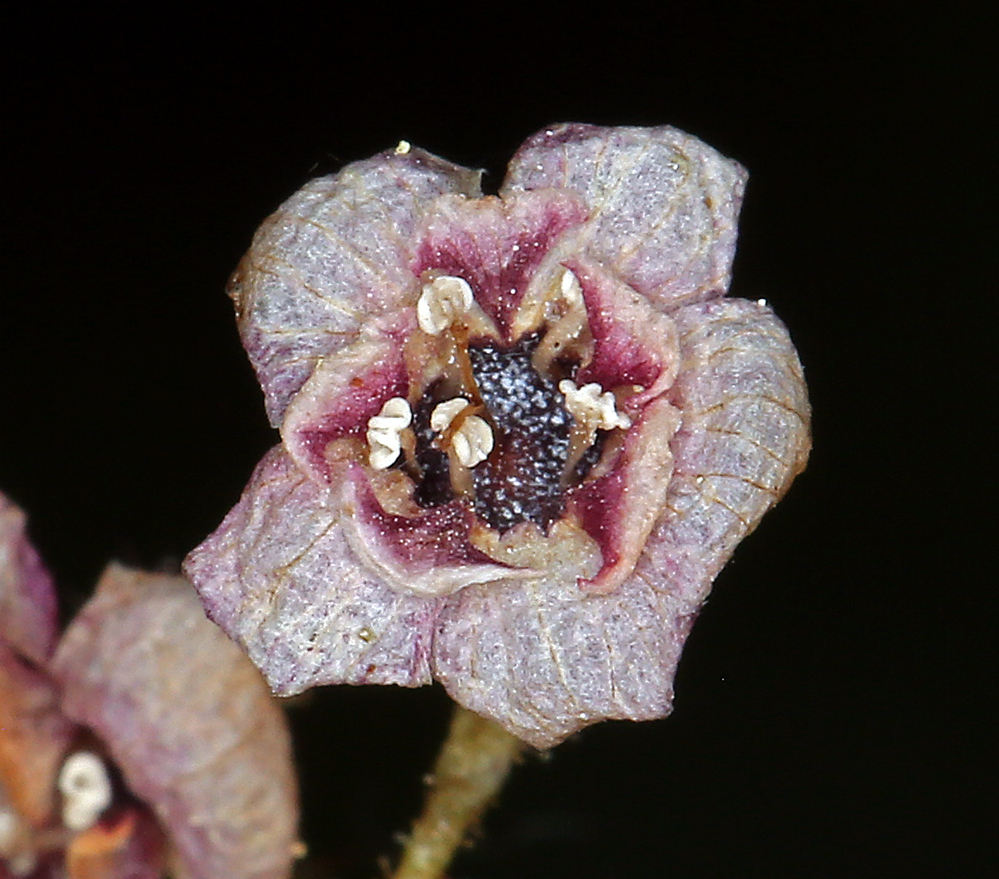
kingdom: Plantae
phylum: Tracheophyta
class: Magnoliopsida
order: Saxifragales
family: Grossulariaceae
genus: Ribes
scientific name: Ribes lacustre
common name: Black gooseberry
